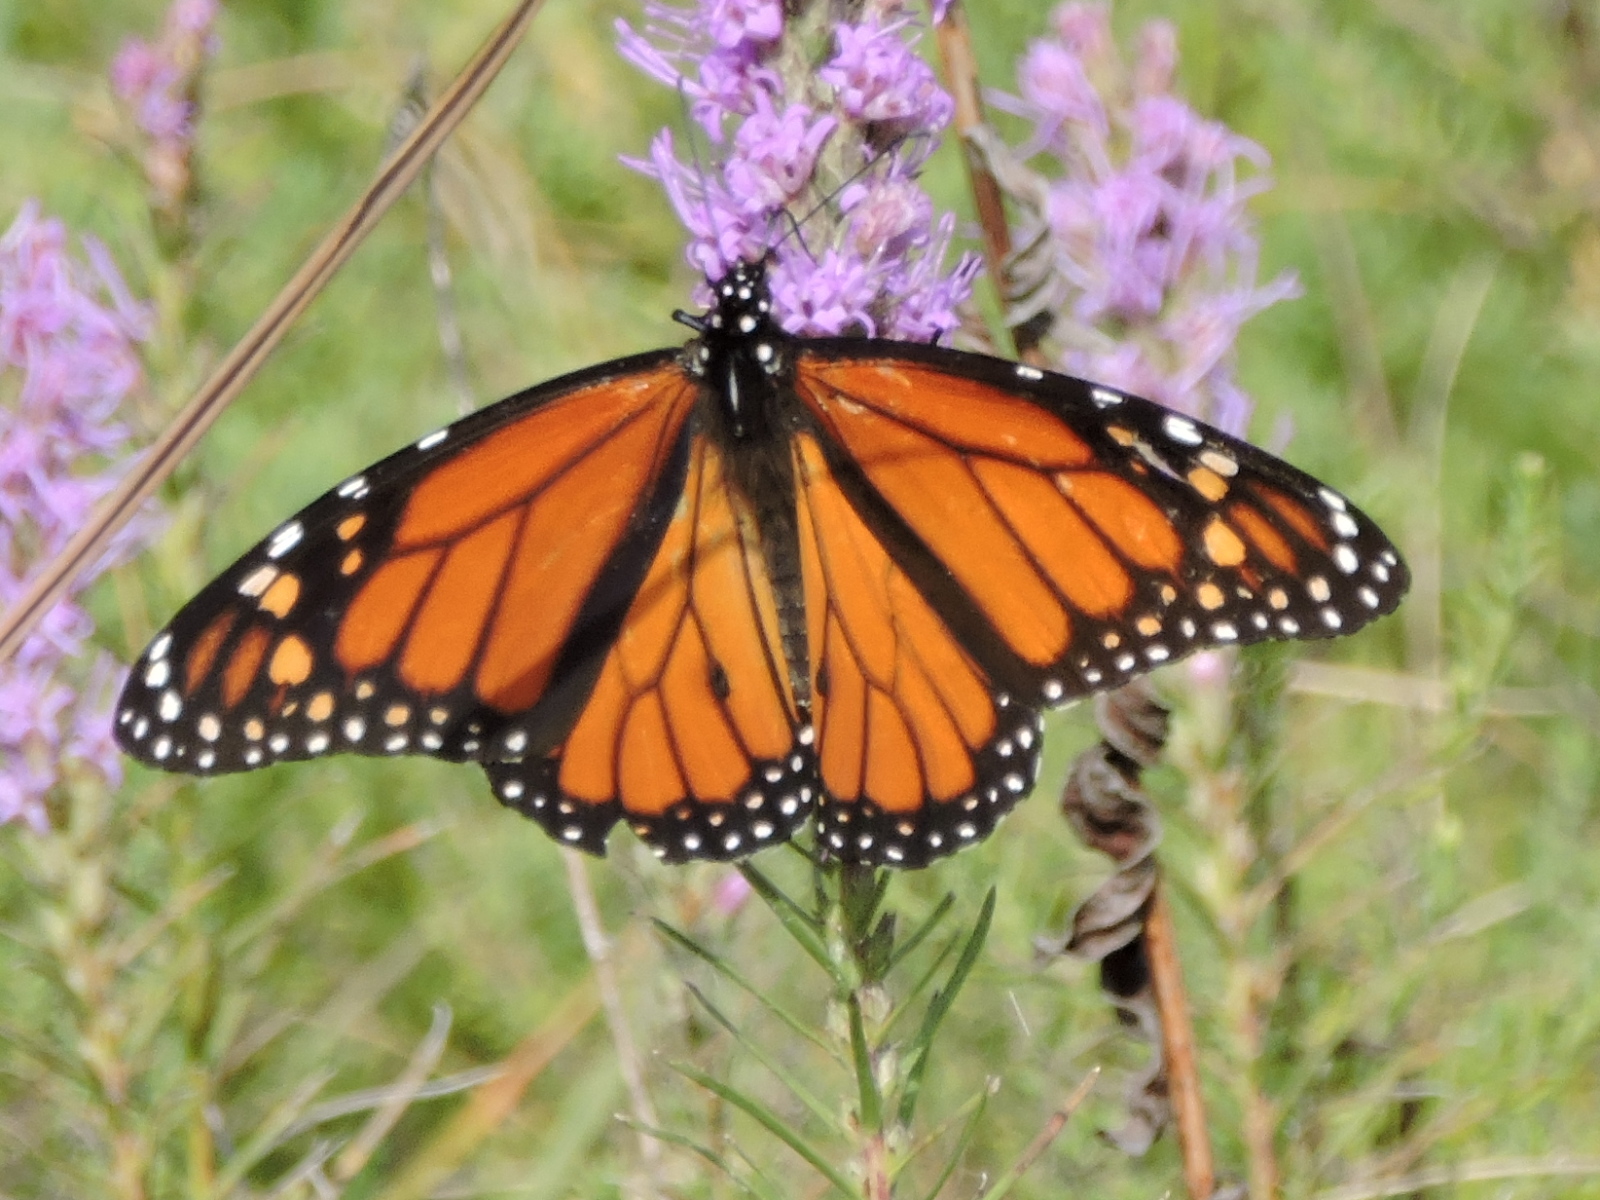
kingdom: Animalia
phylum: Arthropoda
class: Insecta
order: Lepidoptera
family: Nymphalidae
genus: Danaus
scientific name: Danaus plexippus
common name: Monarch
